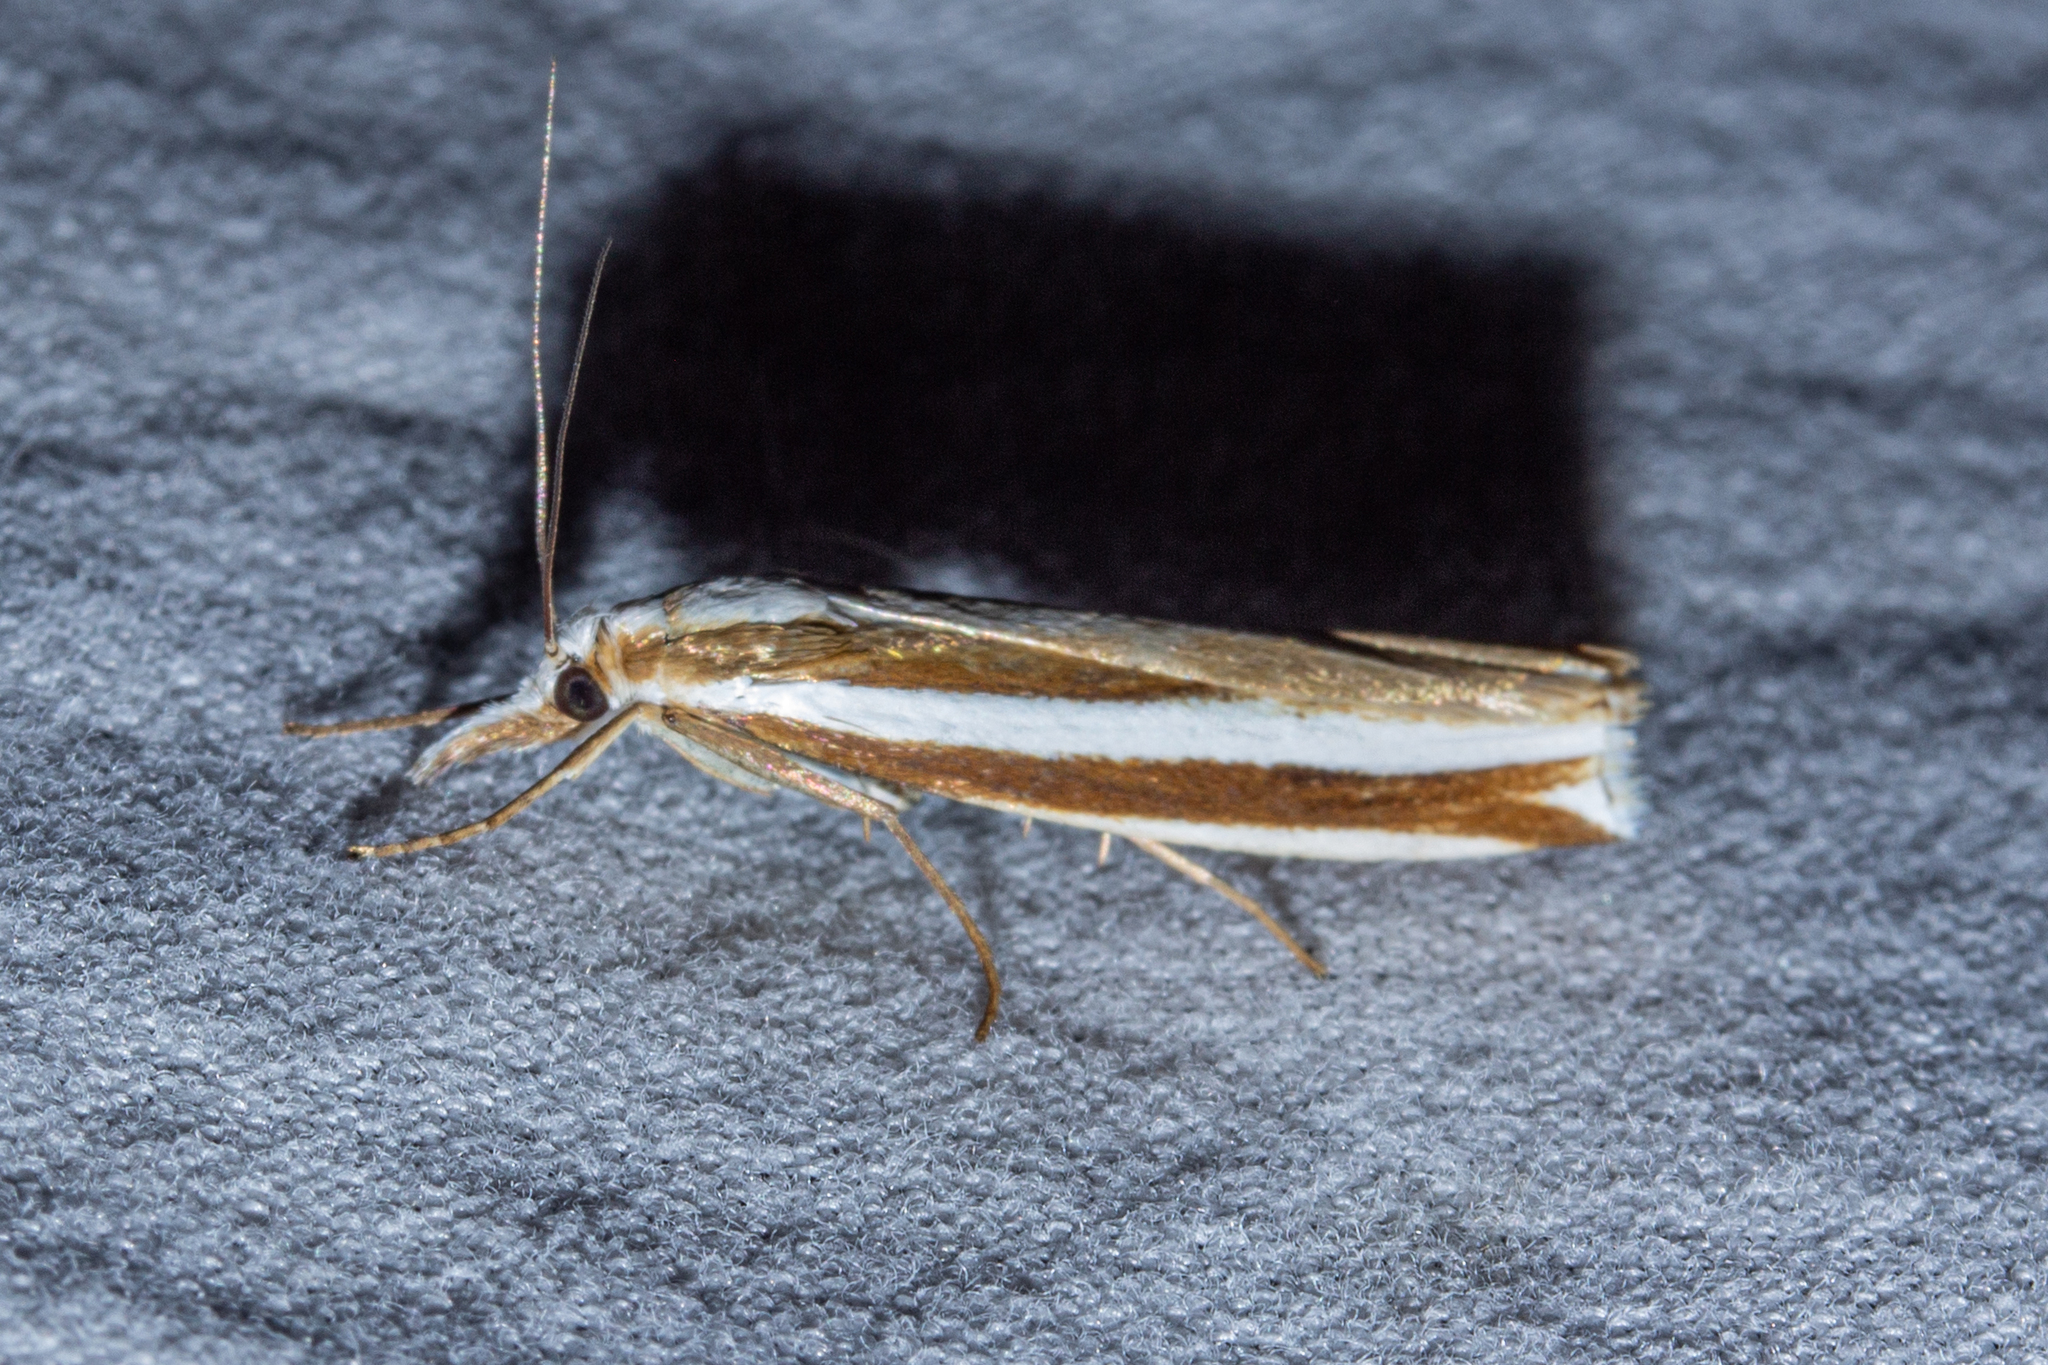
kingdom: Animalia
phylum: Arthropoda
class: Insecta
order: Lepidoptera
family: Crambidae
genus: Orocrambus
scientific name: Orocrambus apicellus
